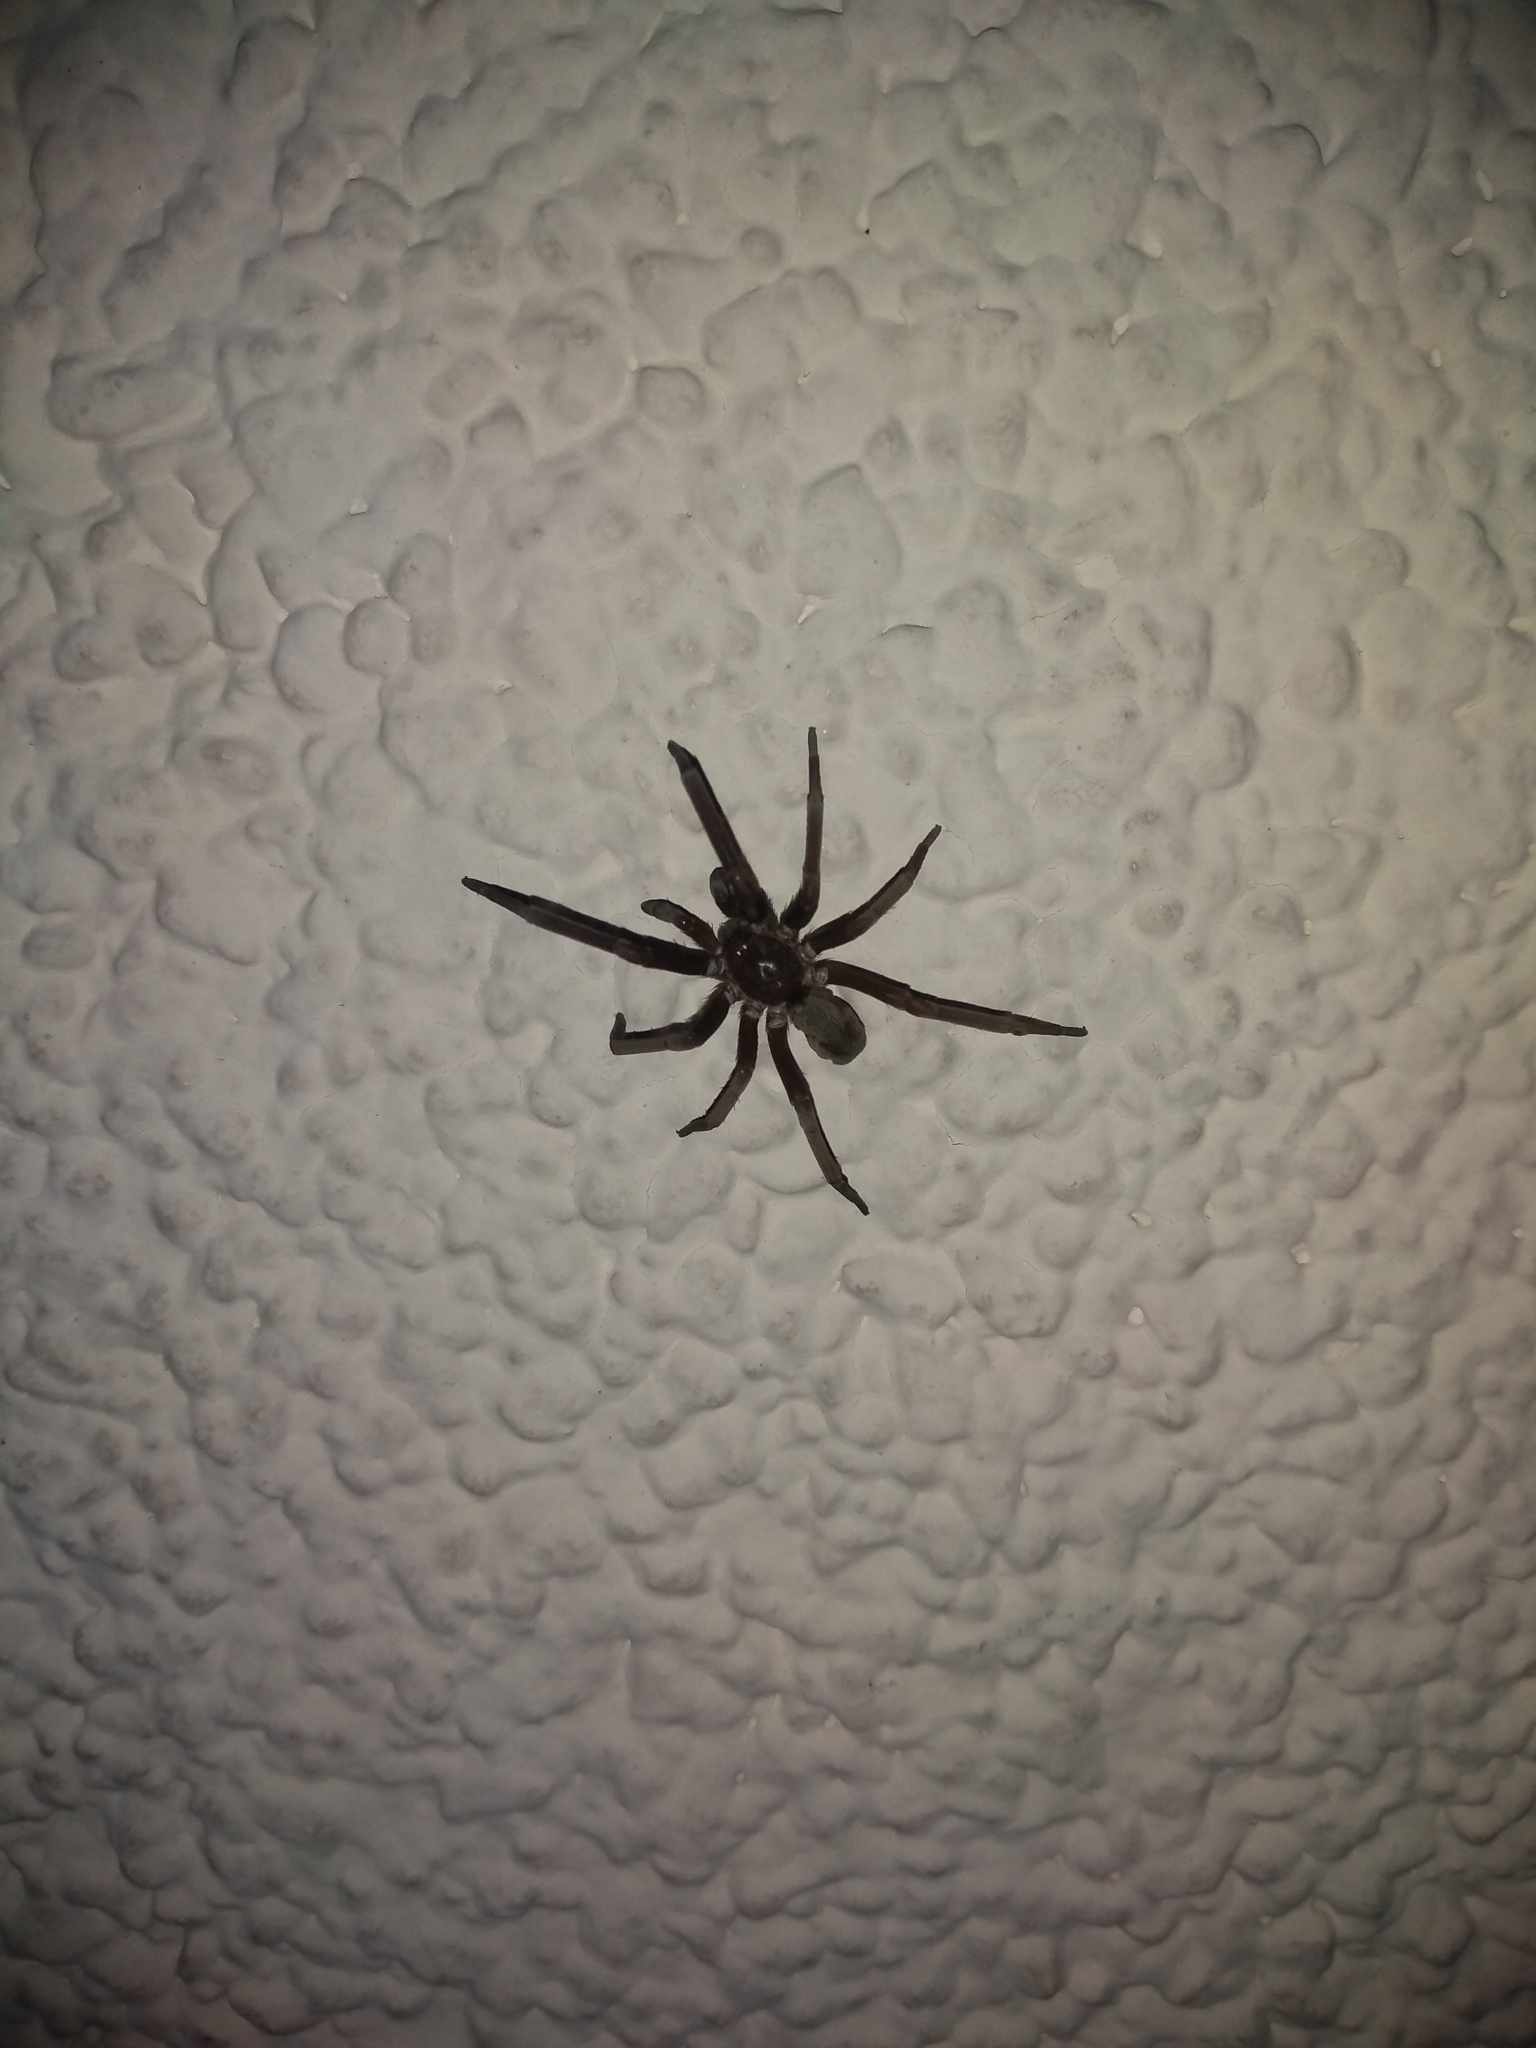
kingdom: Animalia
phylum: Arthropoda
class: Arachnida
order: Araneae
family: Filistatidae
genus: Kukulcania
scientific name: Kukulcania hibernalis
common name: Crevice weaver
